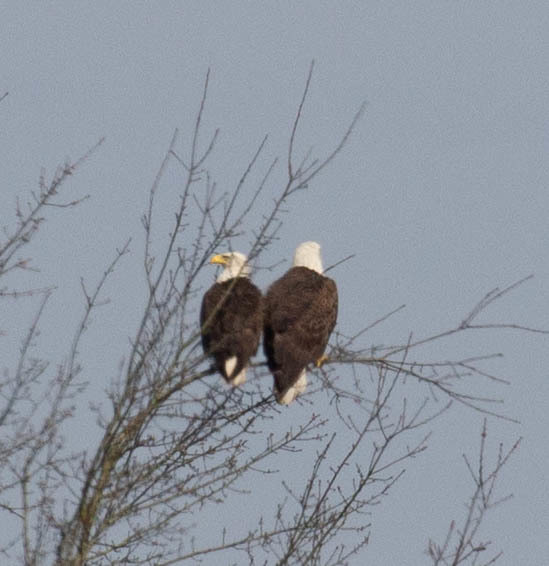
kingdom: Animalia
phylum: Chordata
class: Aves
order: Accipitriformes
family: Accipitridae
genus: Haliaeetus
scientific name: Haliaeetus leucocephalus
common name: Bald eagle
